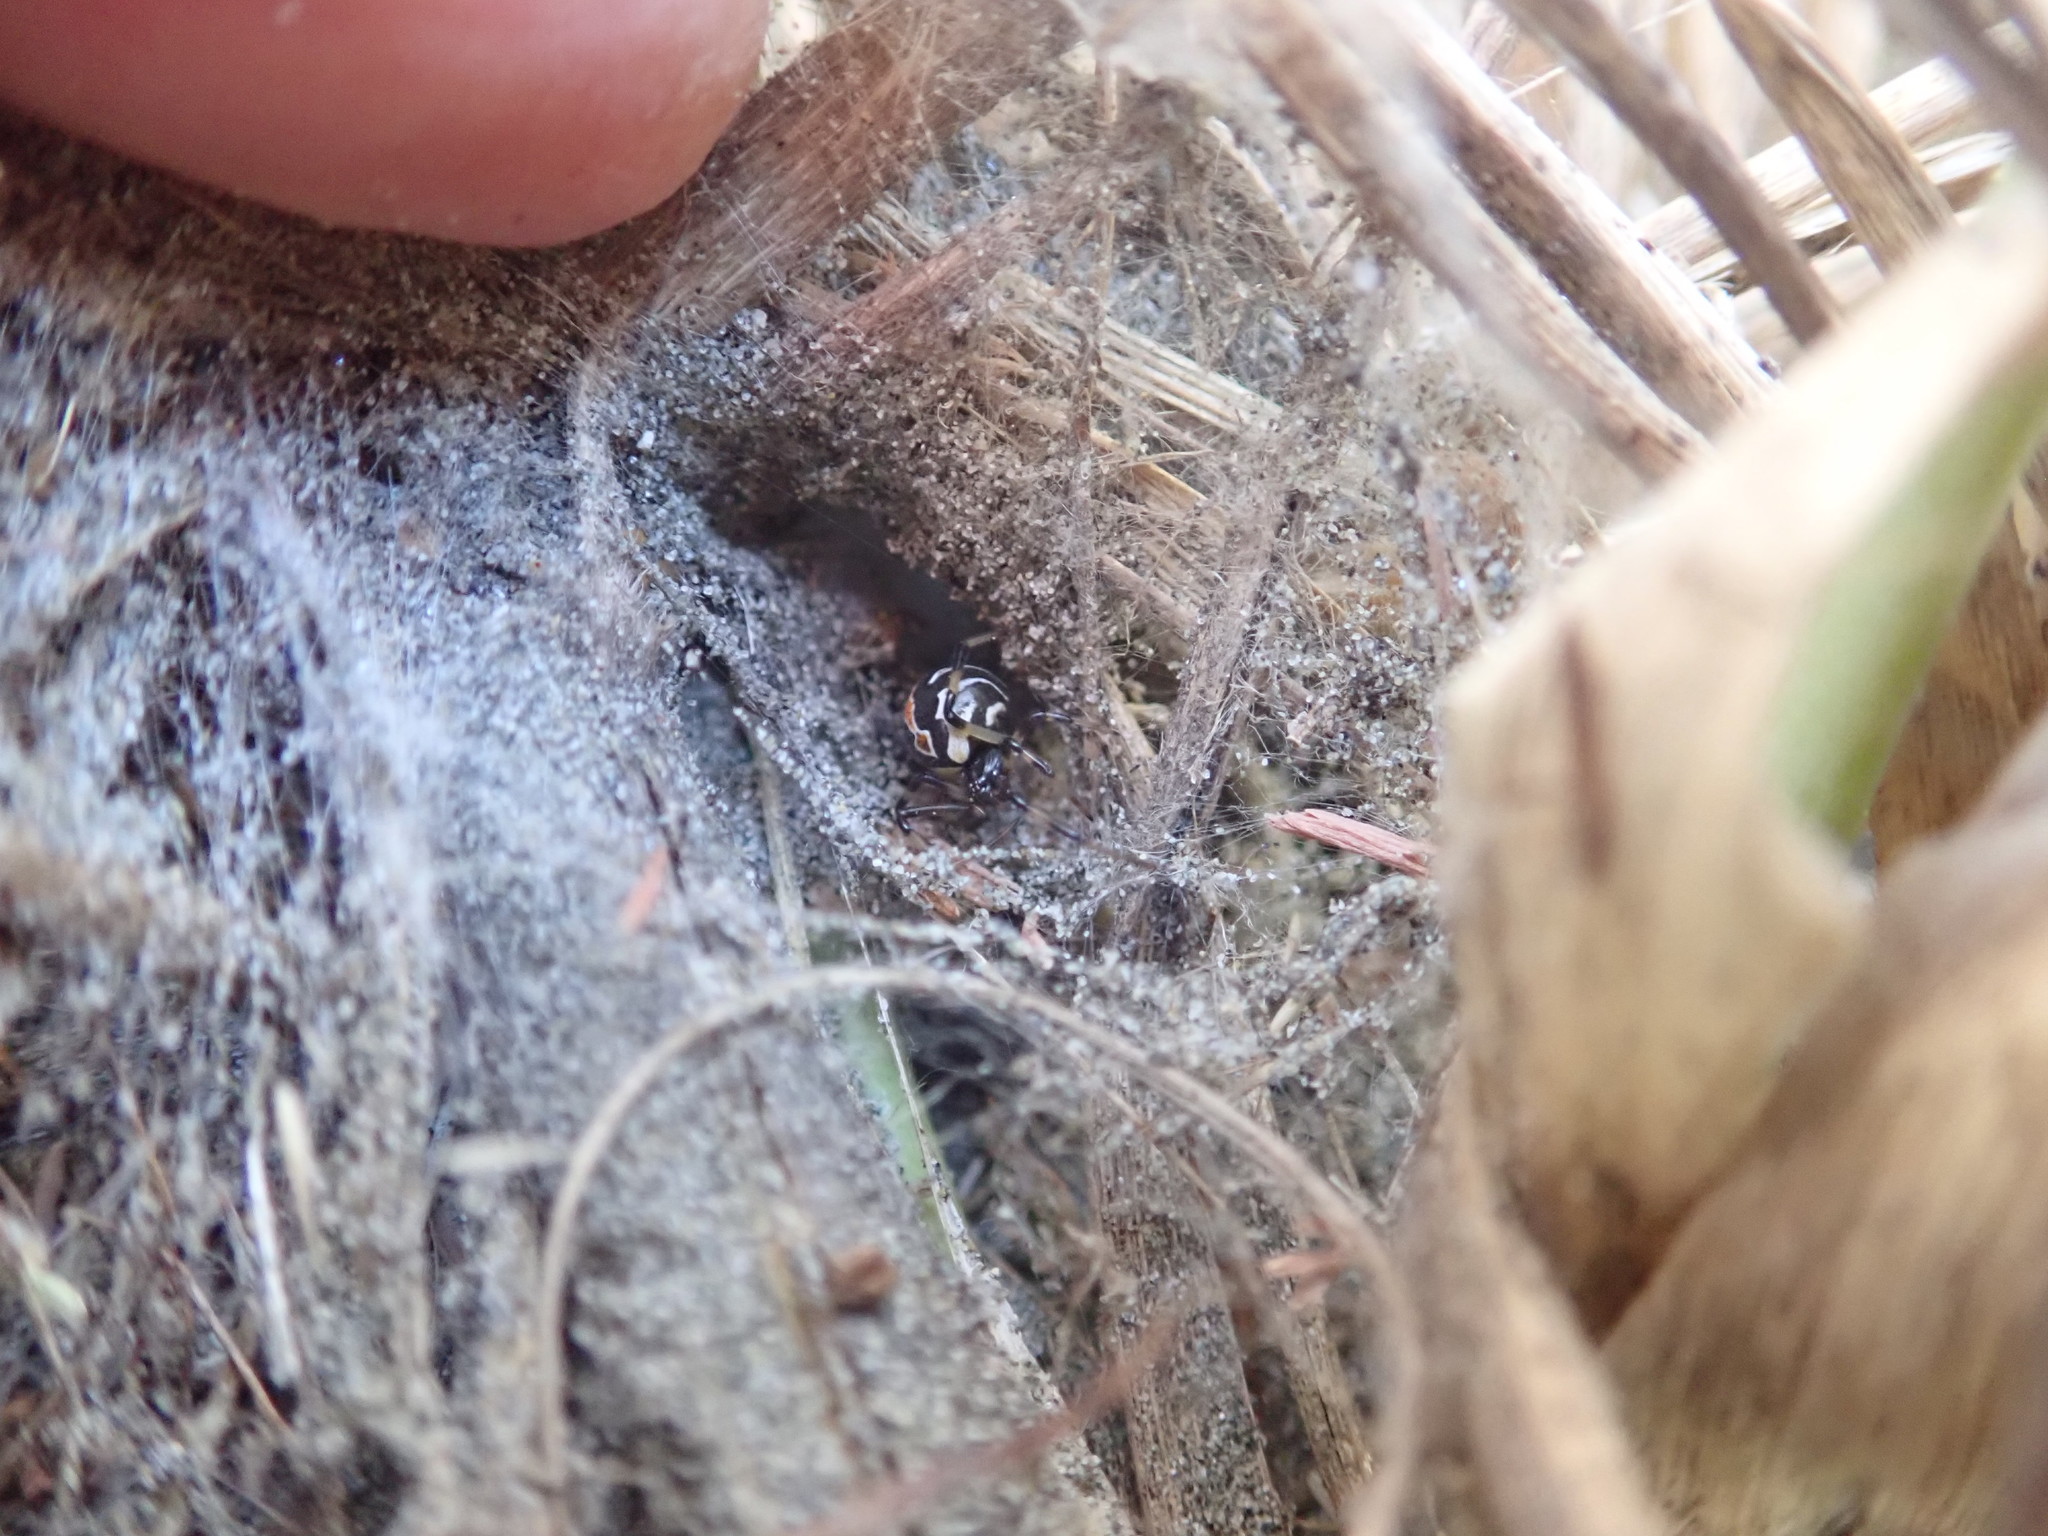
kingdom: Animalia
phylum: Arthropoda
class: Arachnida
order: Araneae
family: Theridiidae
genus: Latrodectus
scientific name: Latrodectus katipo
